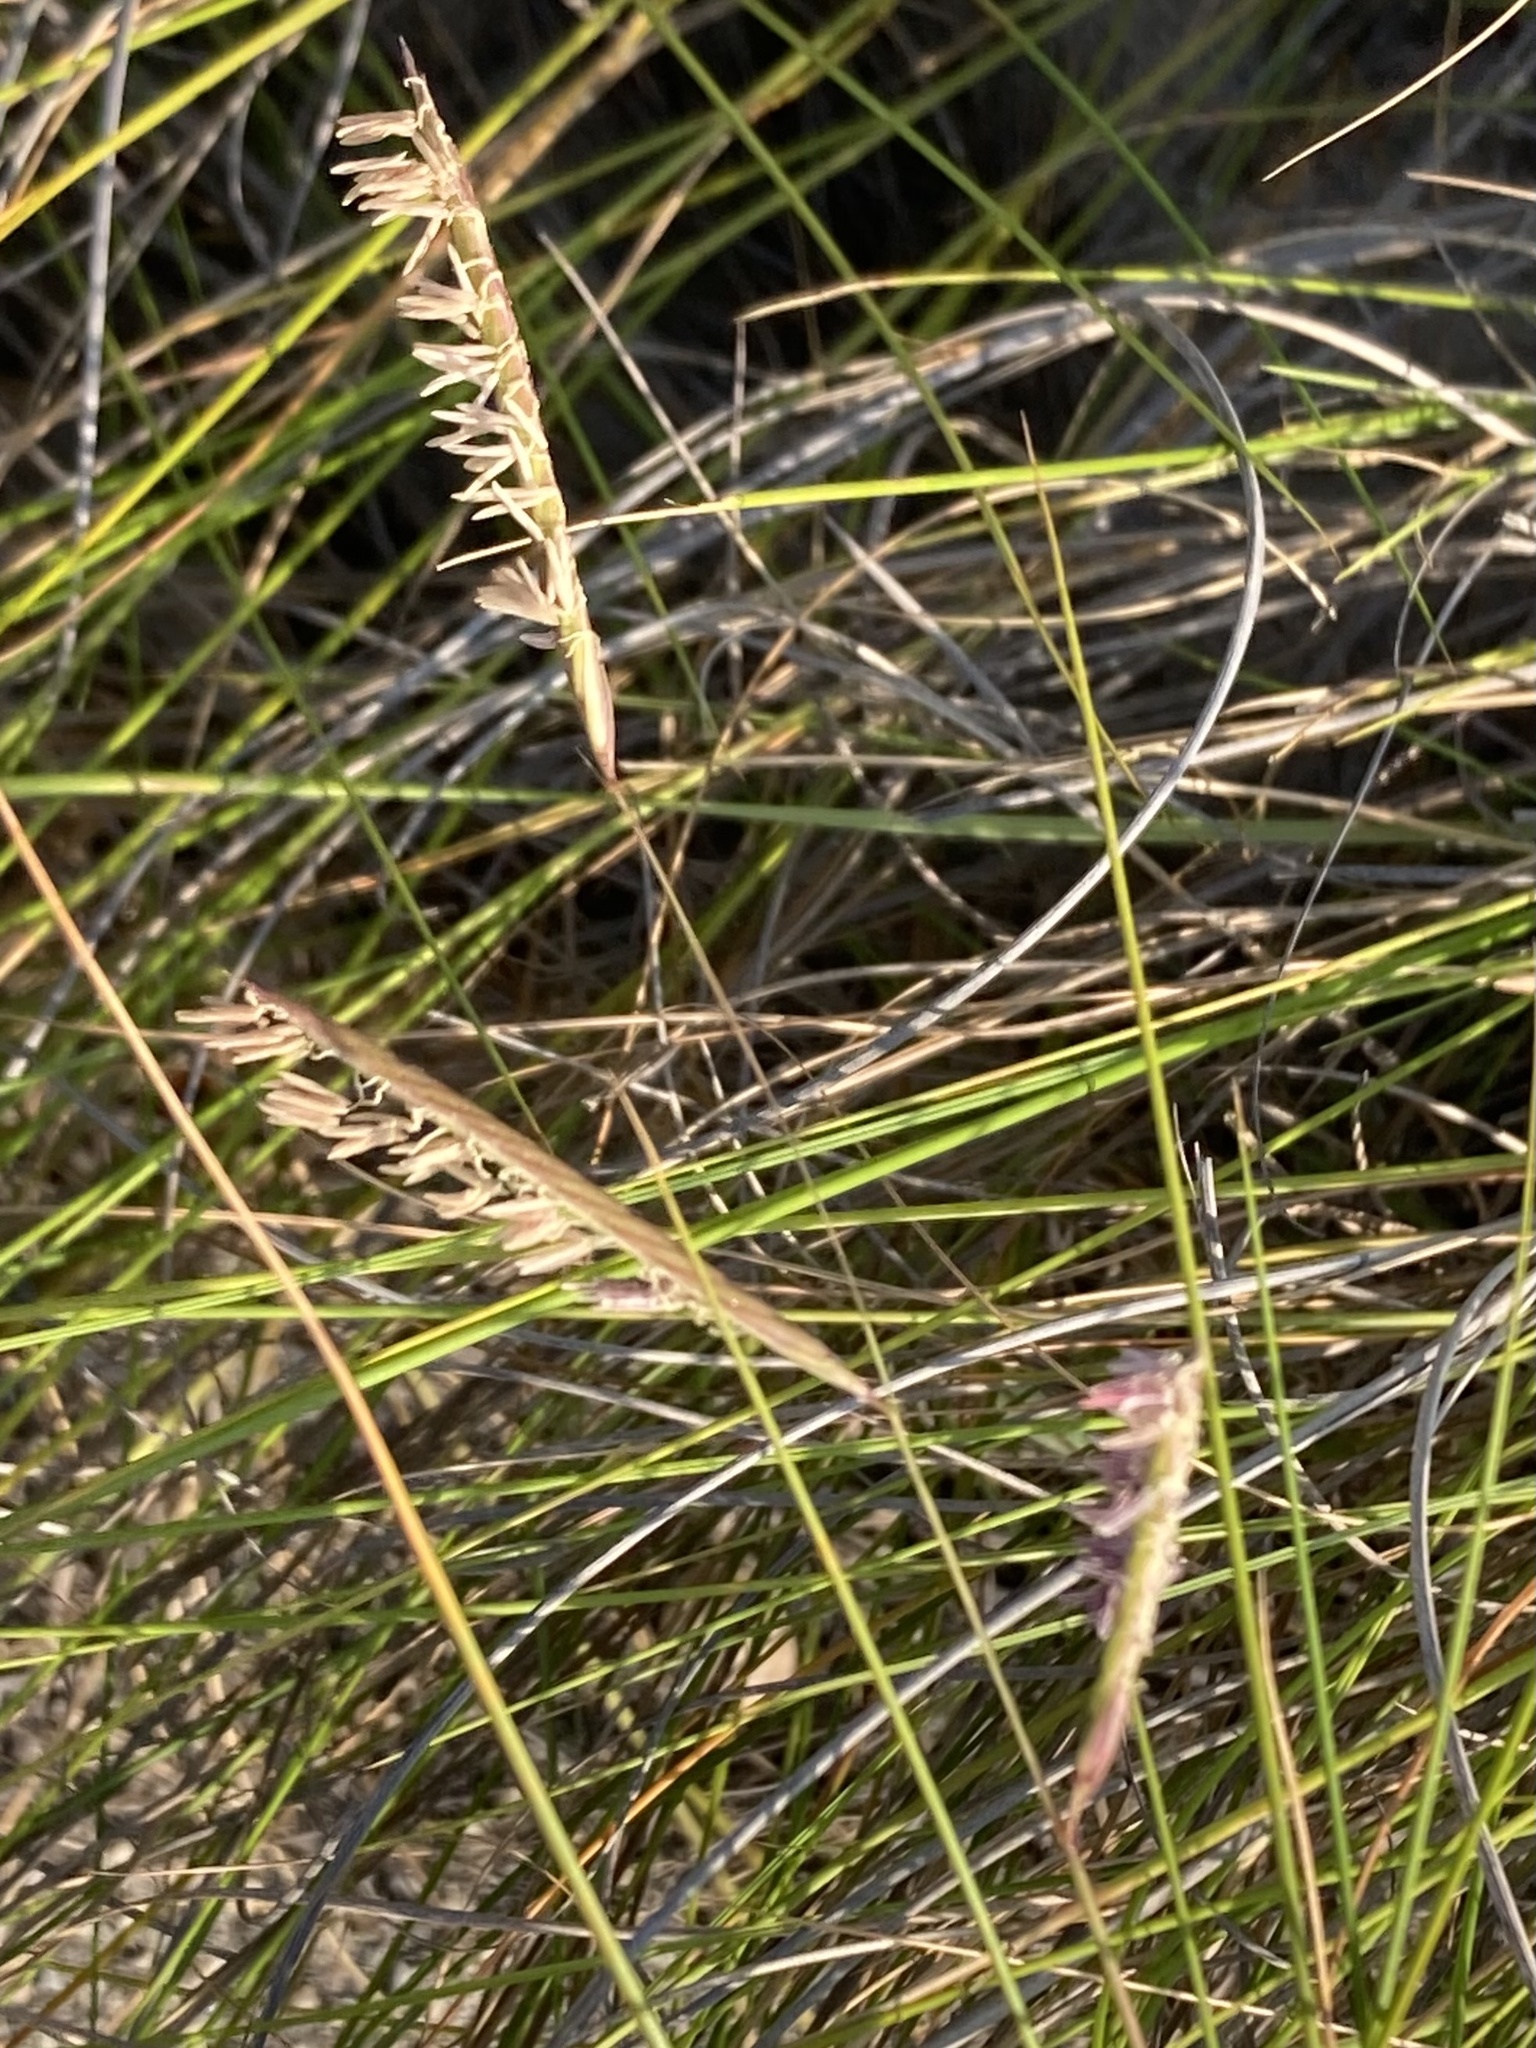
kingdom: Plantae
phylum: Tracheophyta
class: Liliopsida
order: Poales
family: Poaceae
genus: Sporobolus
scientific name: Sporobolus pumilus
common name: Highwater grass
